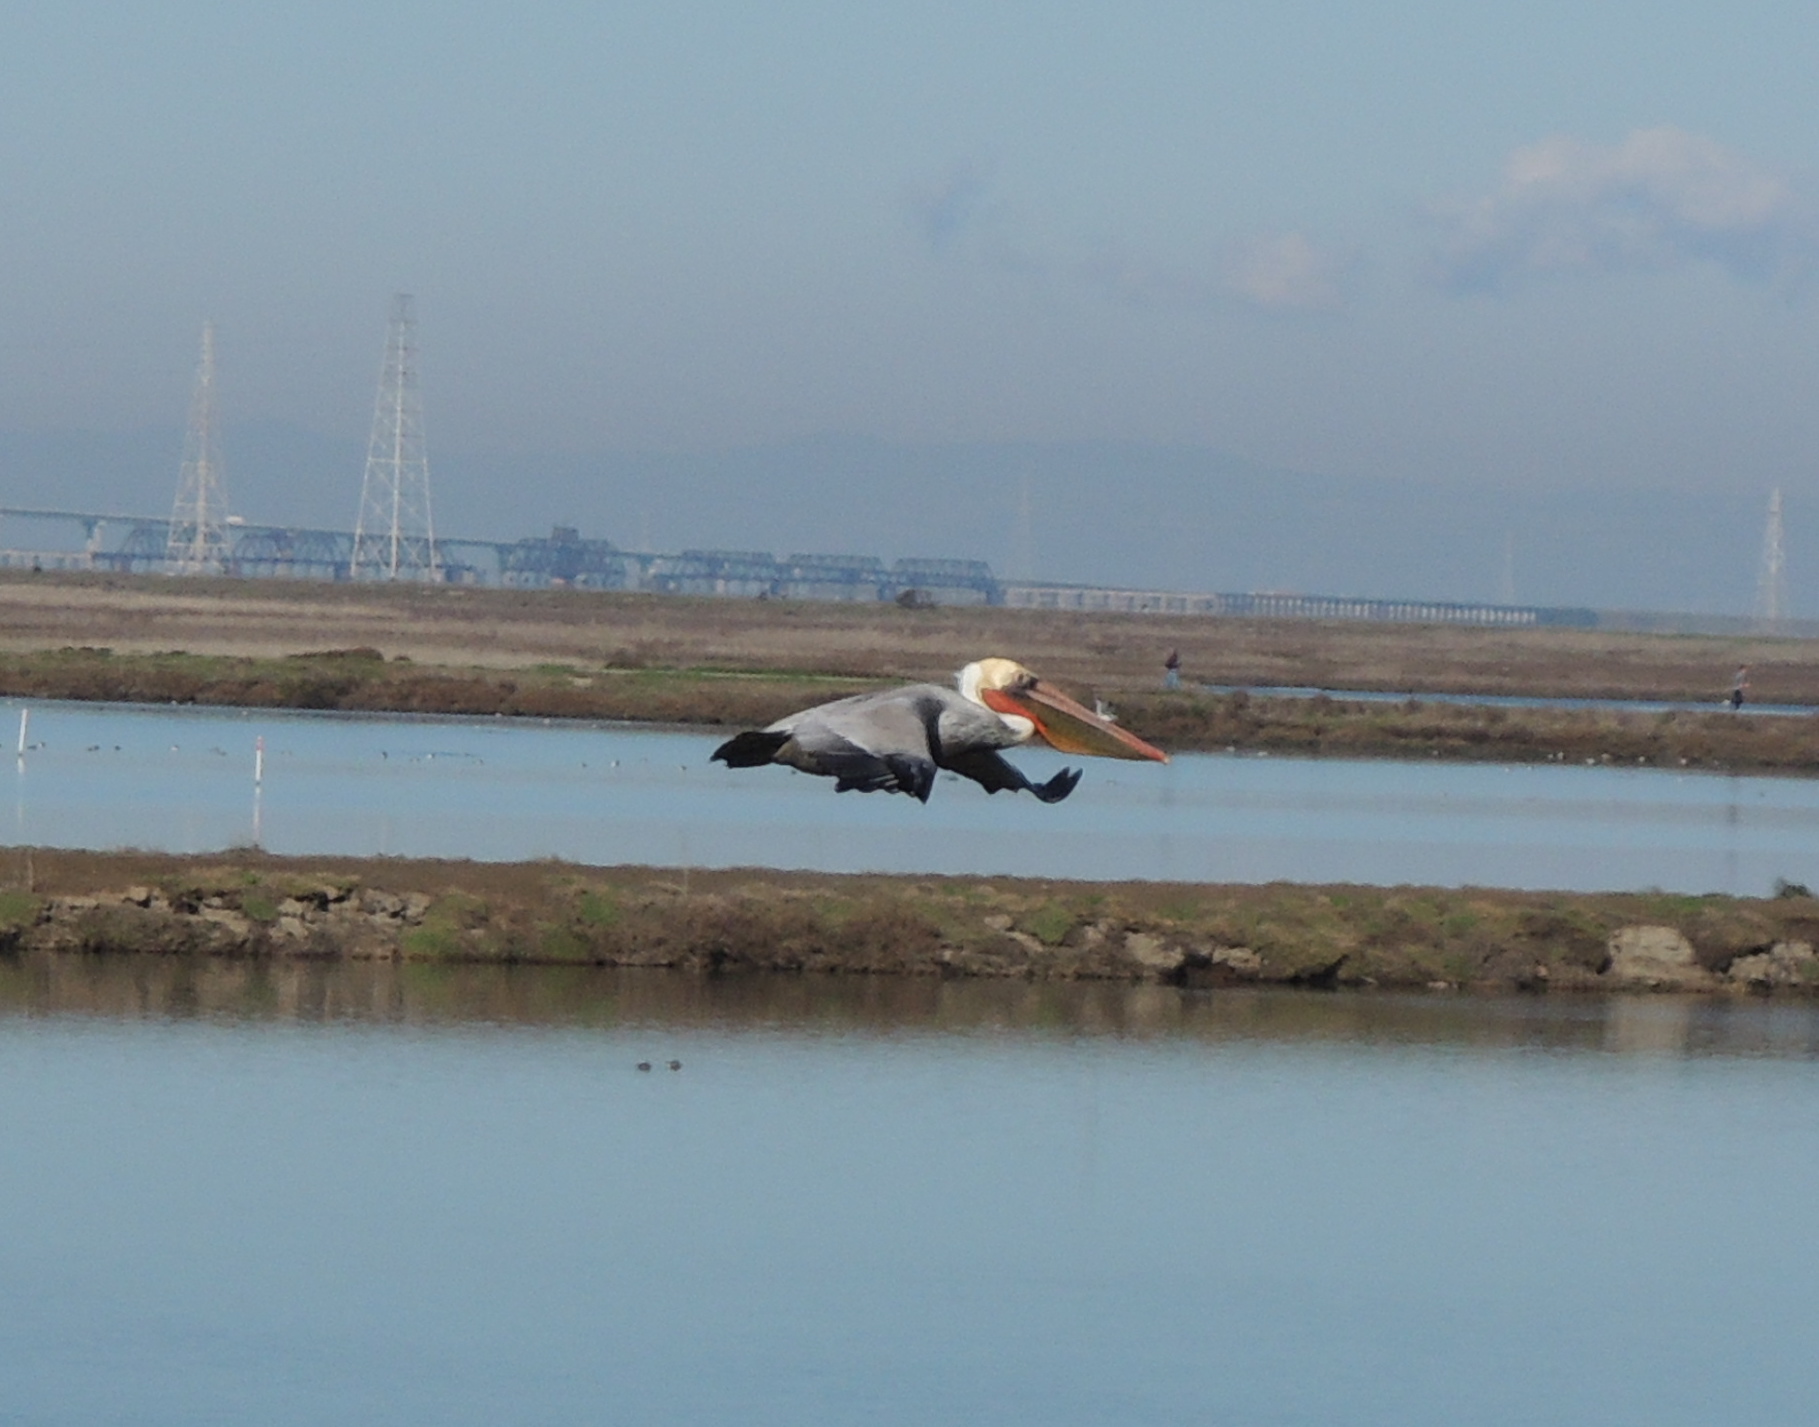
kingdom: Animalia
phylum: Chordata
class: Aves
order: Pelecaniformes
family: Pelecanidae
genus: Pelecanus
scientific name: Pelecanus occidentalis
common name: Brown pelican
